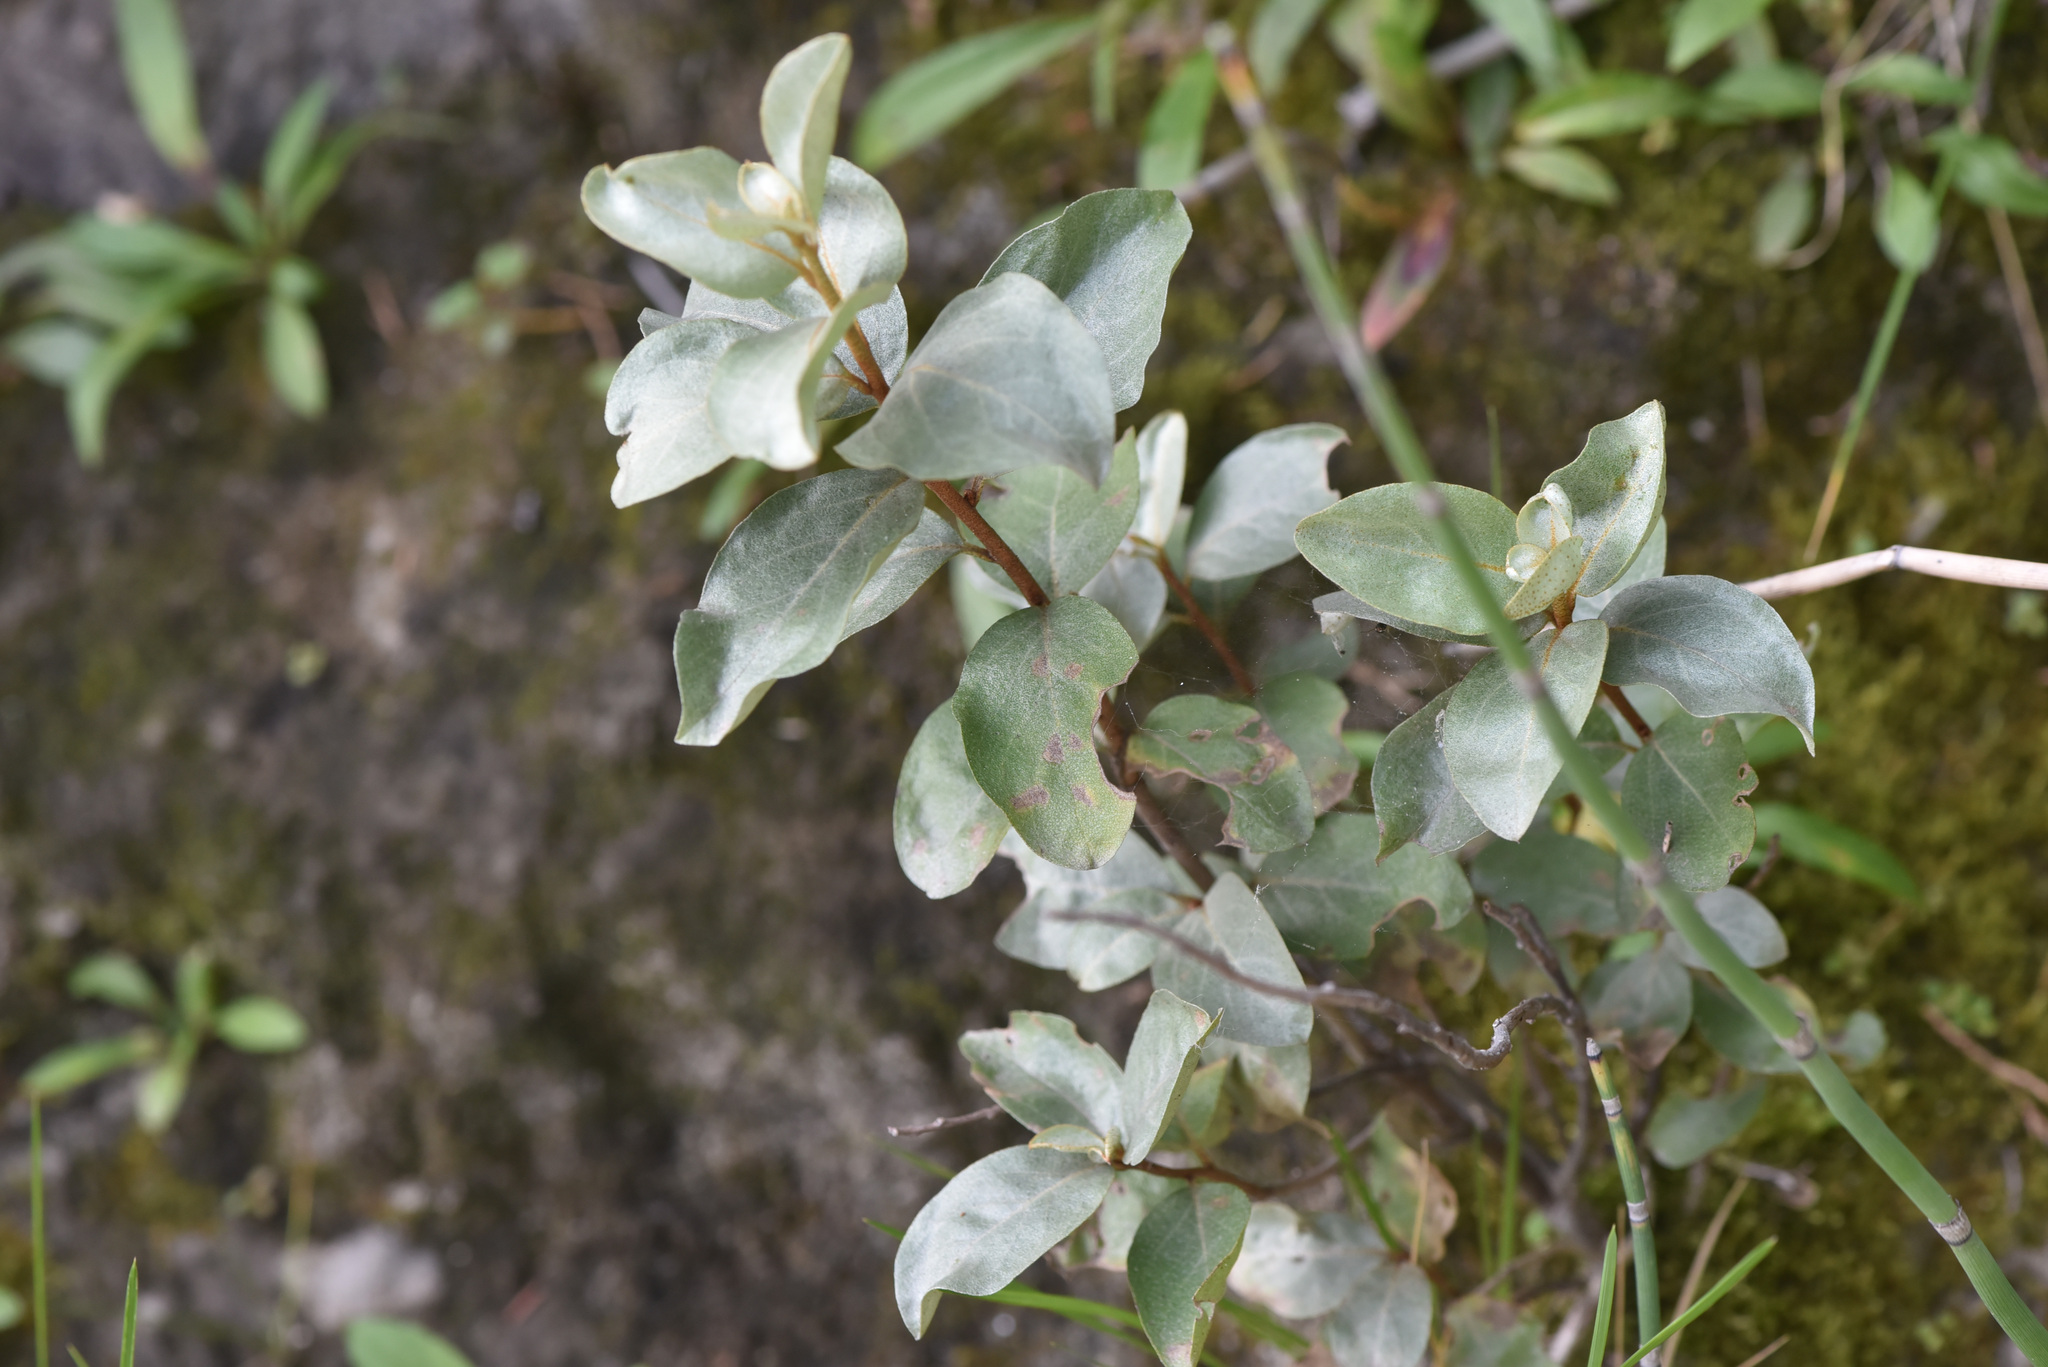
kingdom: Plantae
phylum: Tracheophyta
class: Magnoliopsida
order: Rosales
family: Elaeagnaceae
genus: Elaeagnus
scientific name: Elaeagnus commutata
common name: Silverberry
